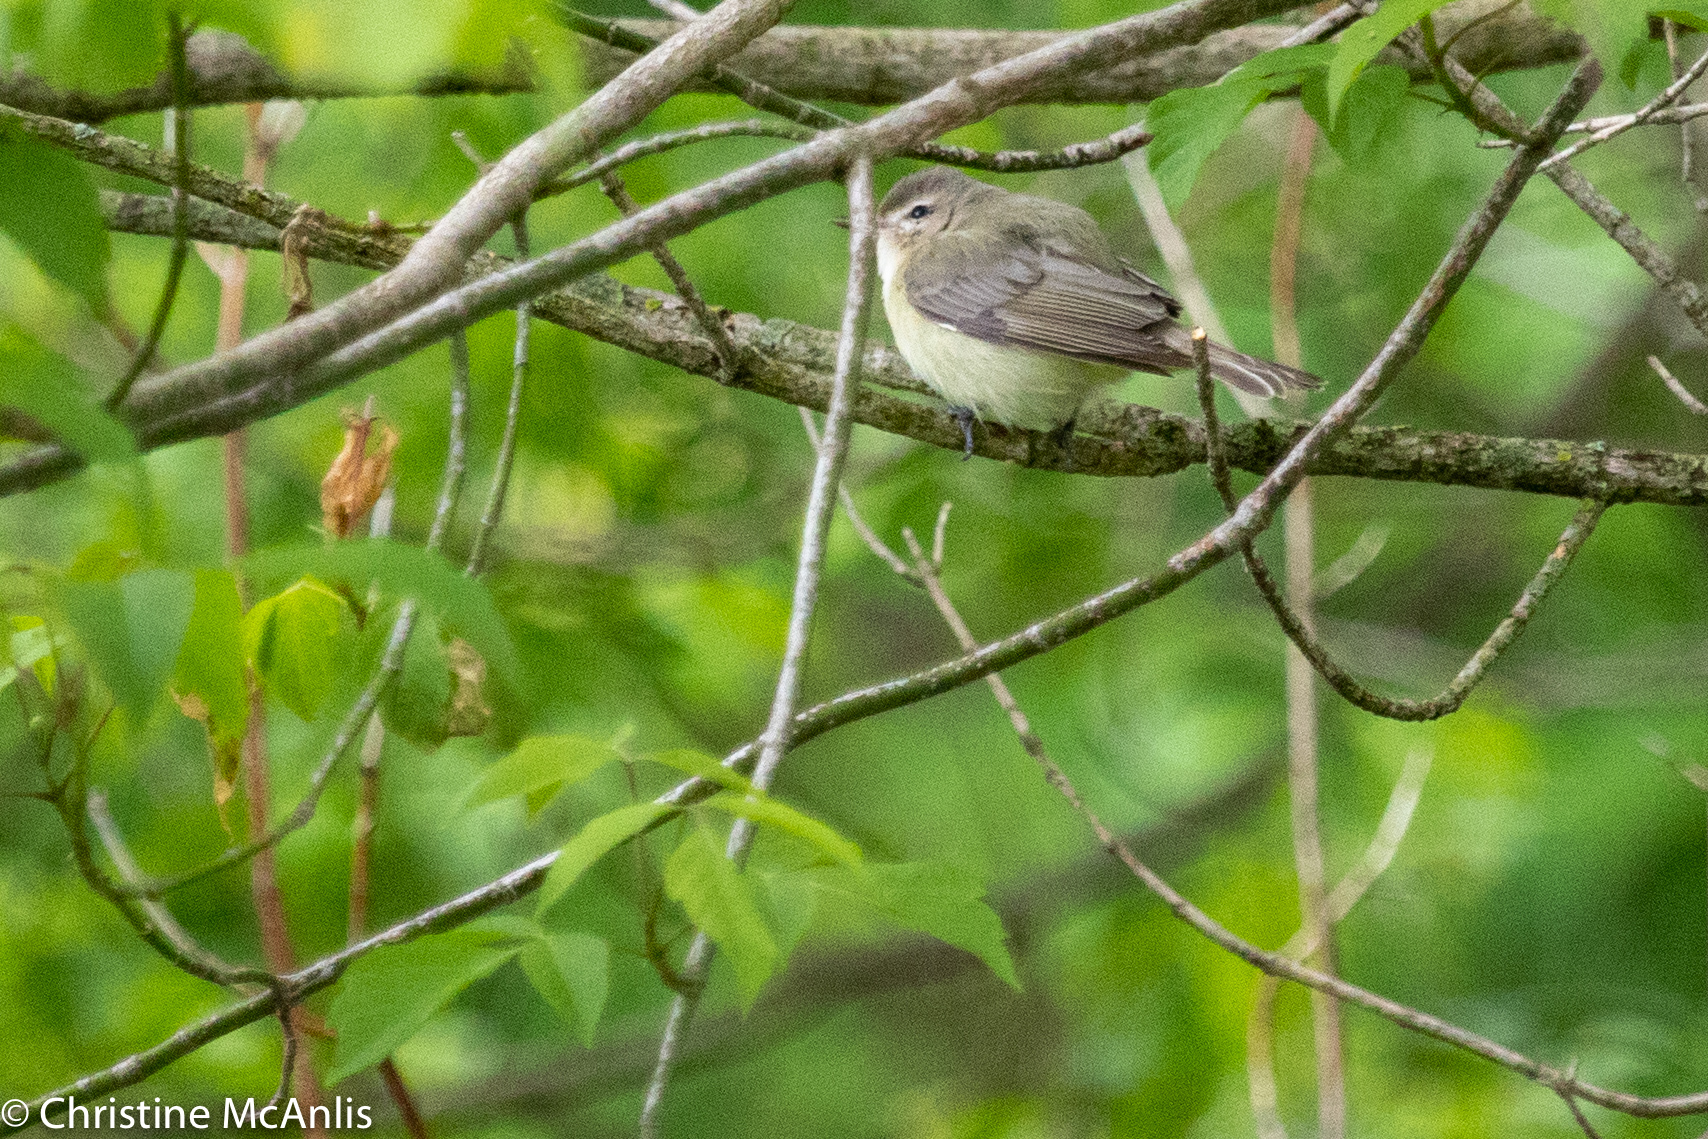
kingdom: Animalia
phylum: Chordata
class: Aves
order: Passeriformes
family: Vireonidae
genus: Vireo
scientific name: Vireo gilvus
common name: Warbling vireo
